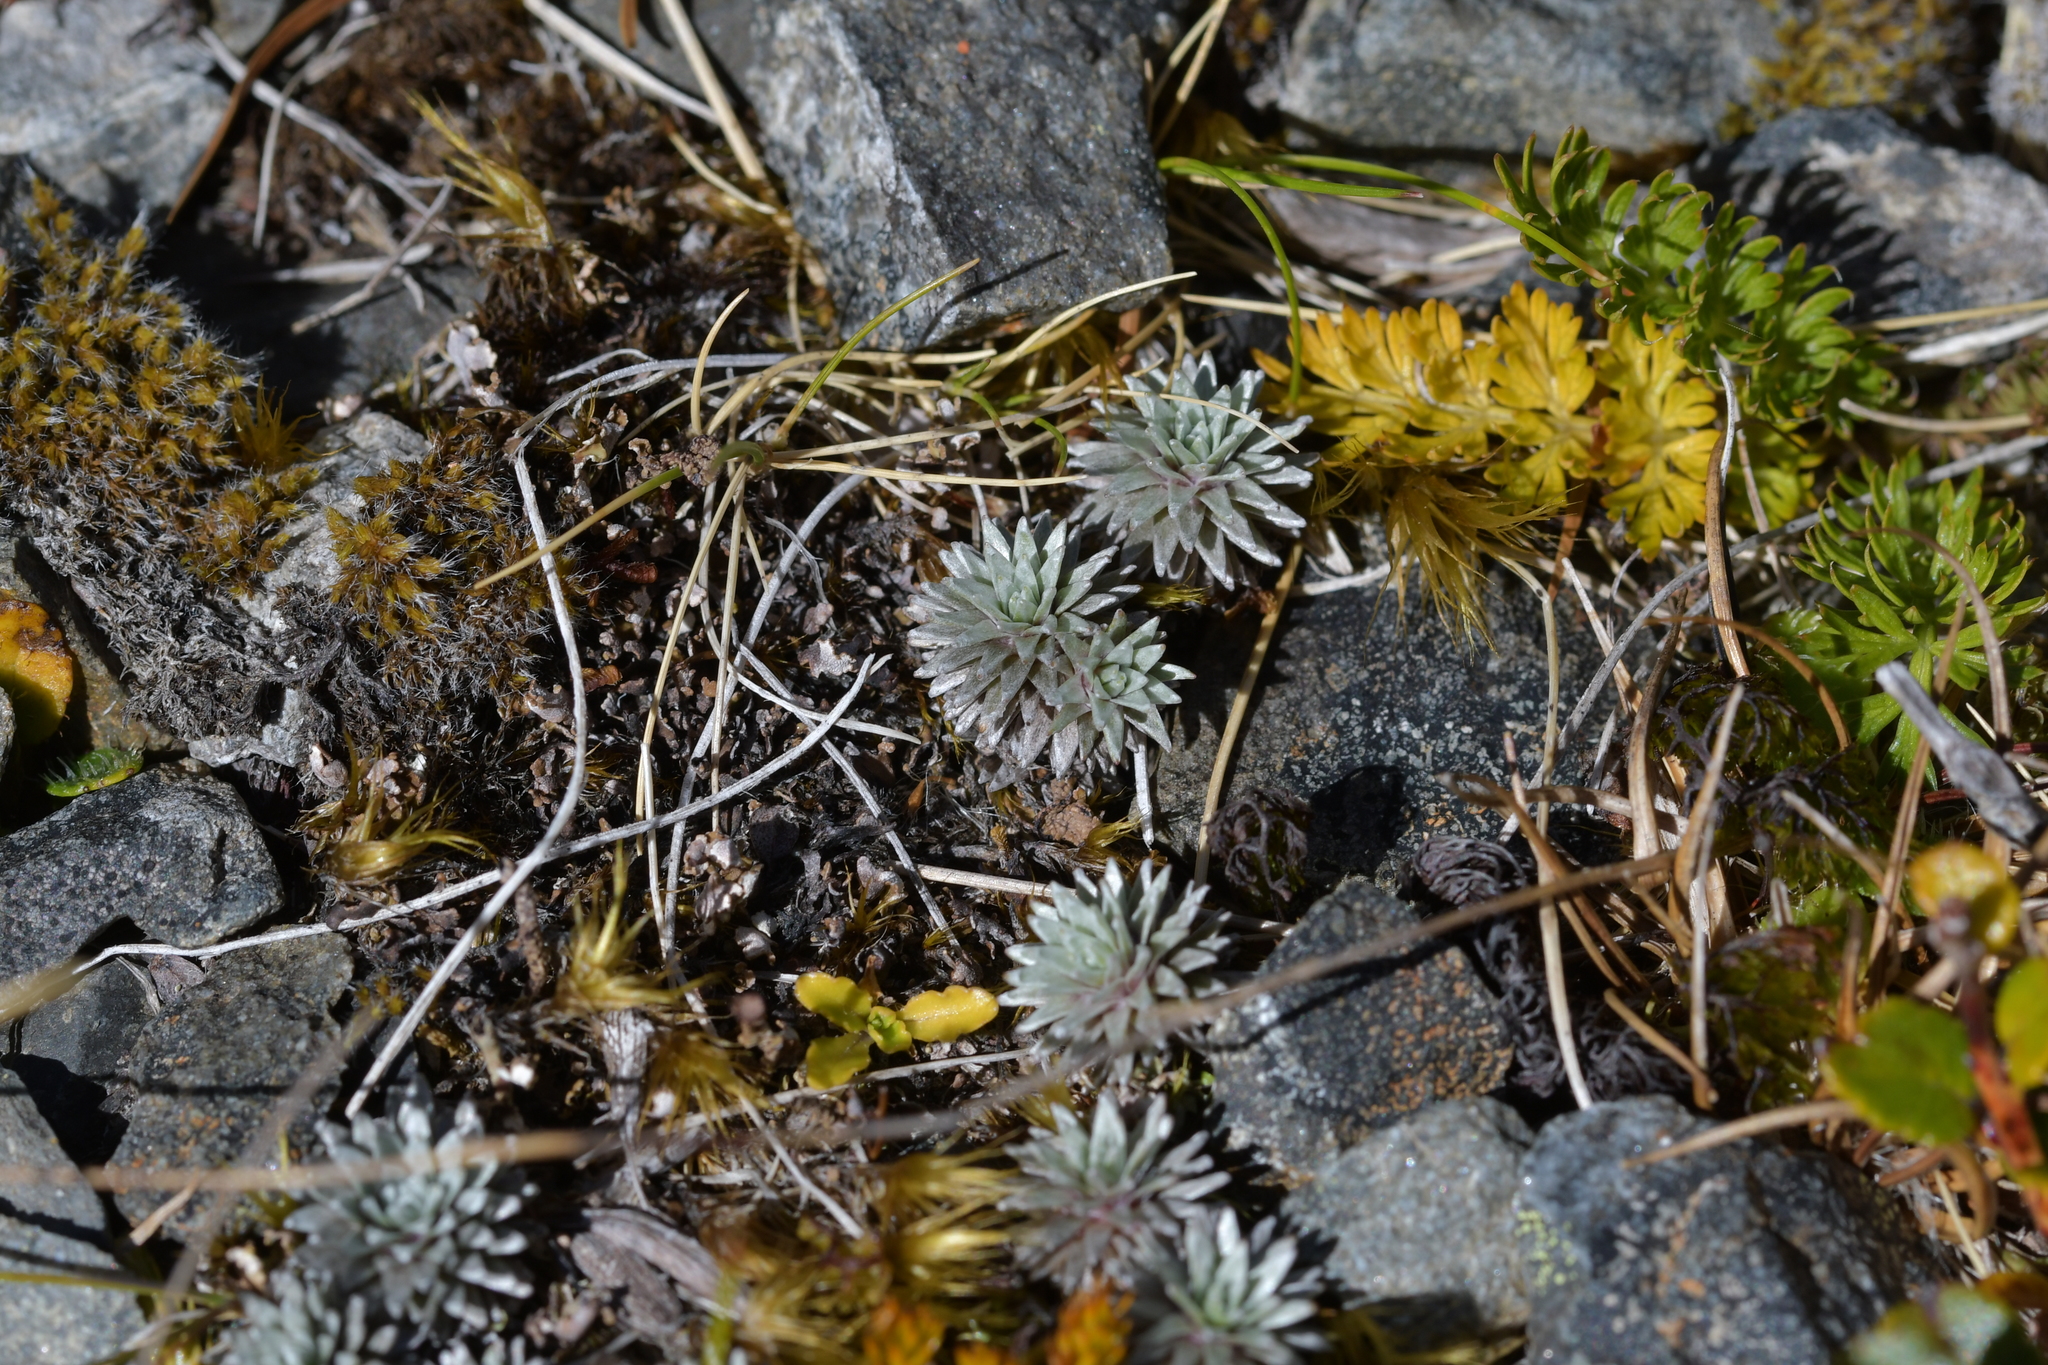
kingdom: Plantae
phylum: Tracheophyta
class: Magnoliopsida
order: Asterales
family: Asteraceae
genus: Raoulia
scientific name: Raoulia grandiflora
